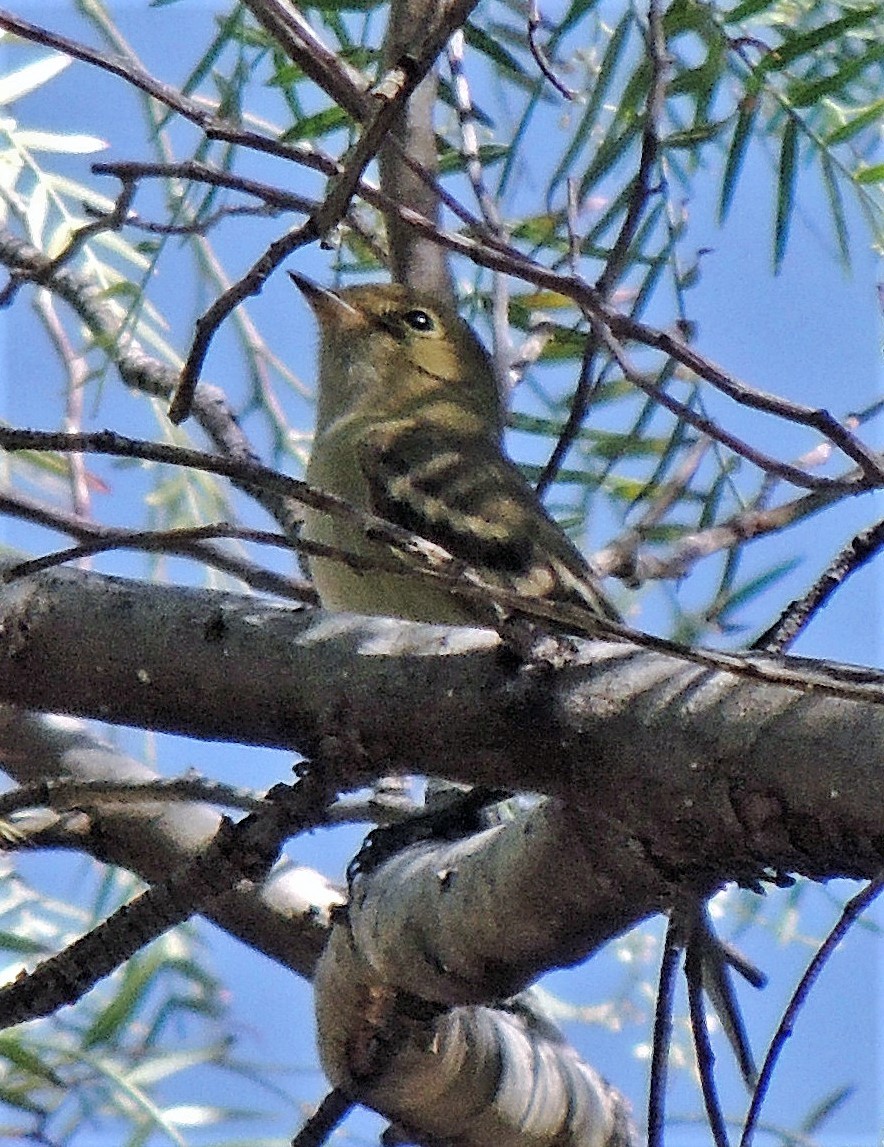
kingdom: Animalia
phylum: Chordata
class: Aves
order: Passeriformes
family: Tyrannidae
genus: Elaenia
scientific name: Elaenia albiceps
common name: White-crested elaenia
